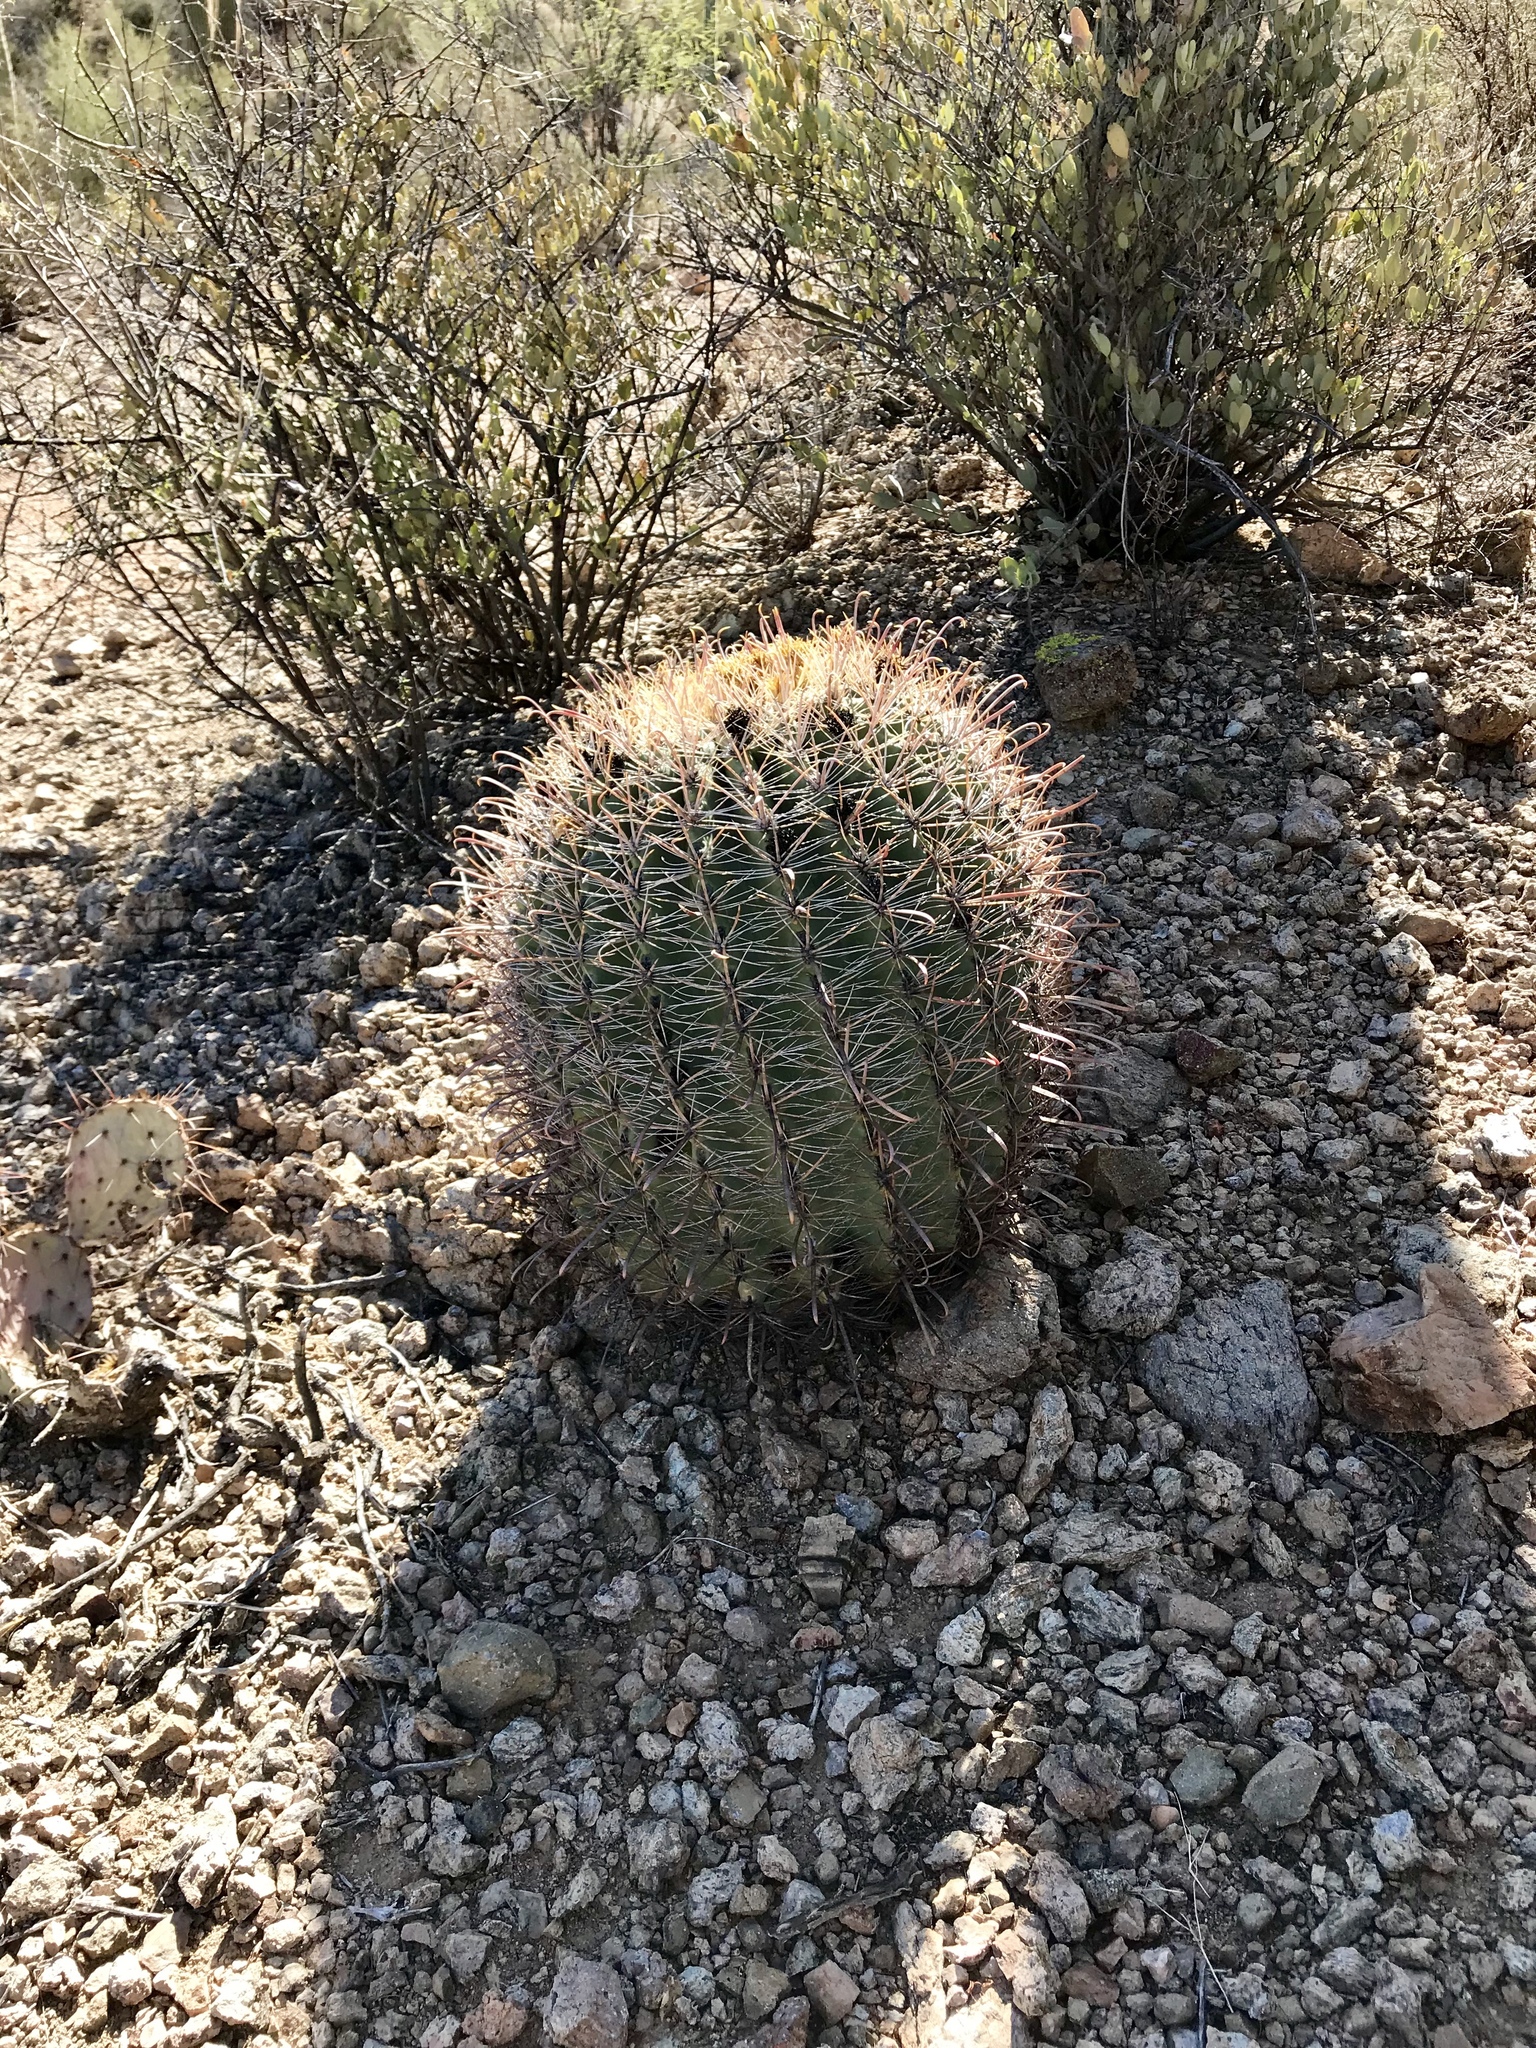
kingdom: Plantae
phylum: Tracheophyta
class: Magnoliopsida
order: Caryophyllales
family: Cactaceae
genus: Ferocactus
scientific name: Ferocactus wislizeni
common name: Candy barrel cactus
